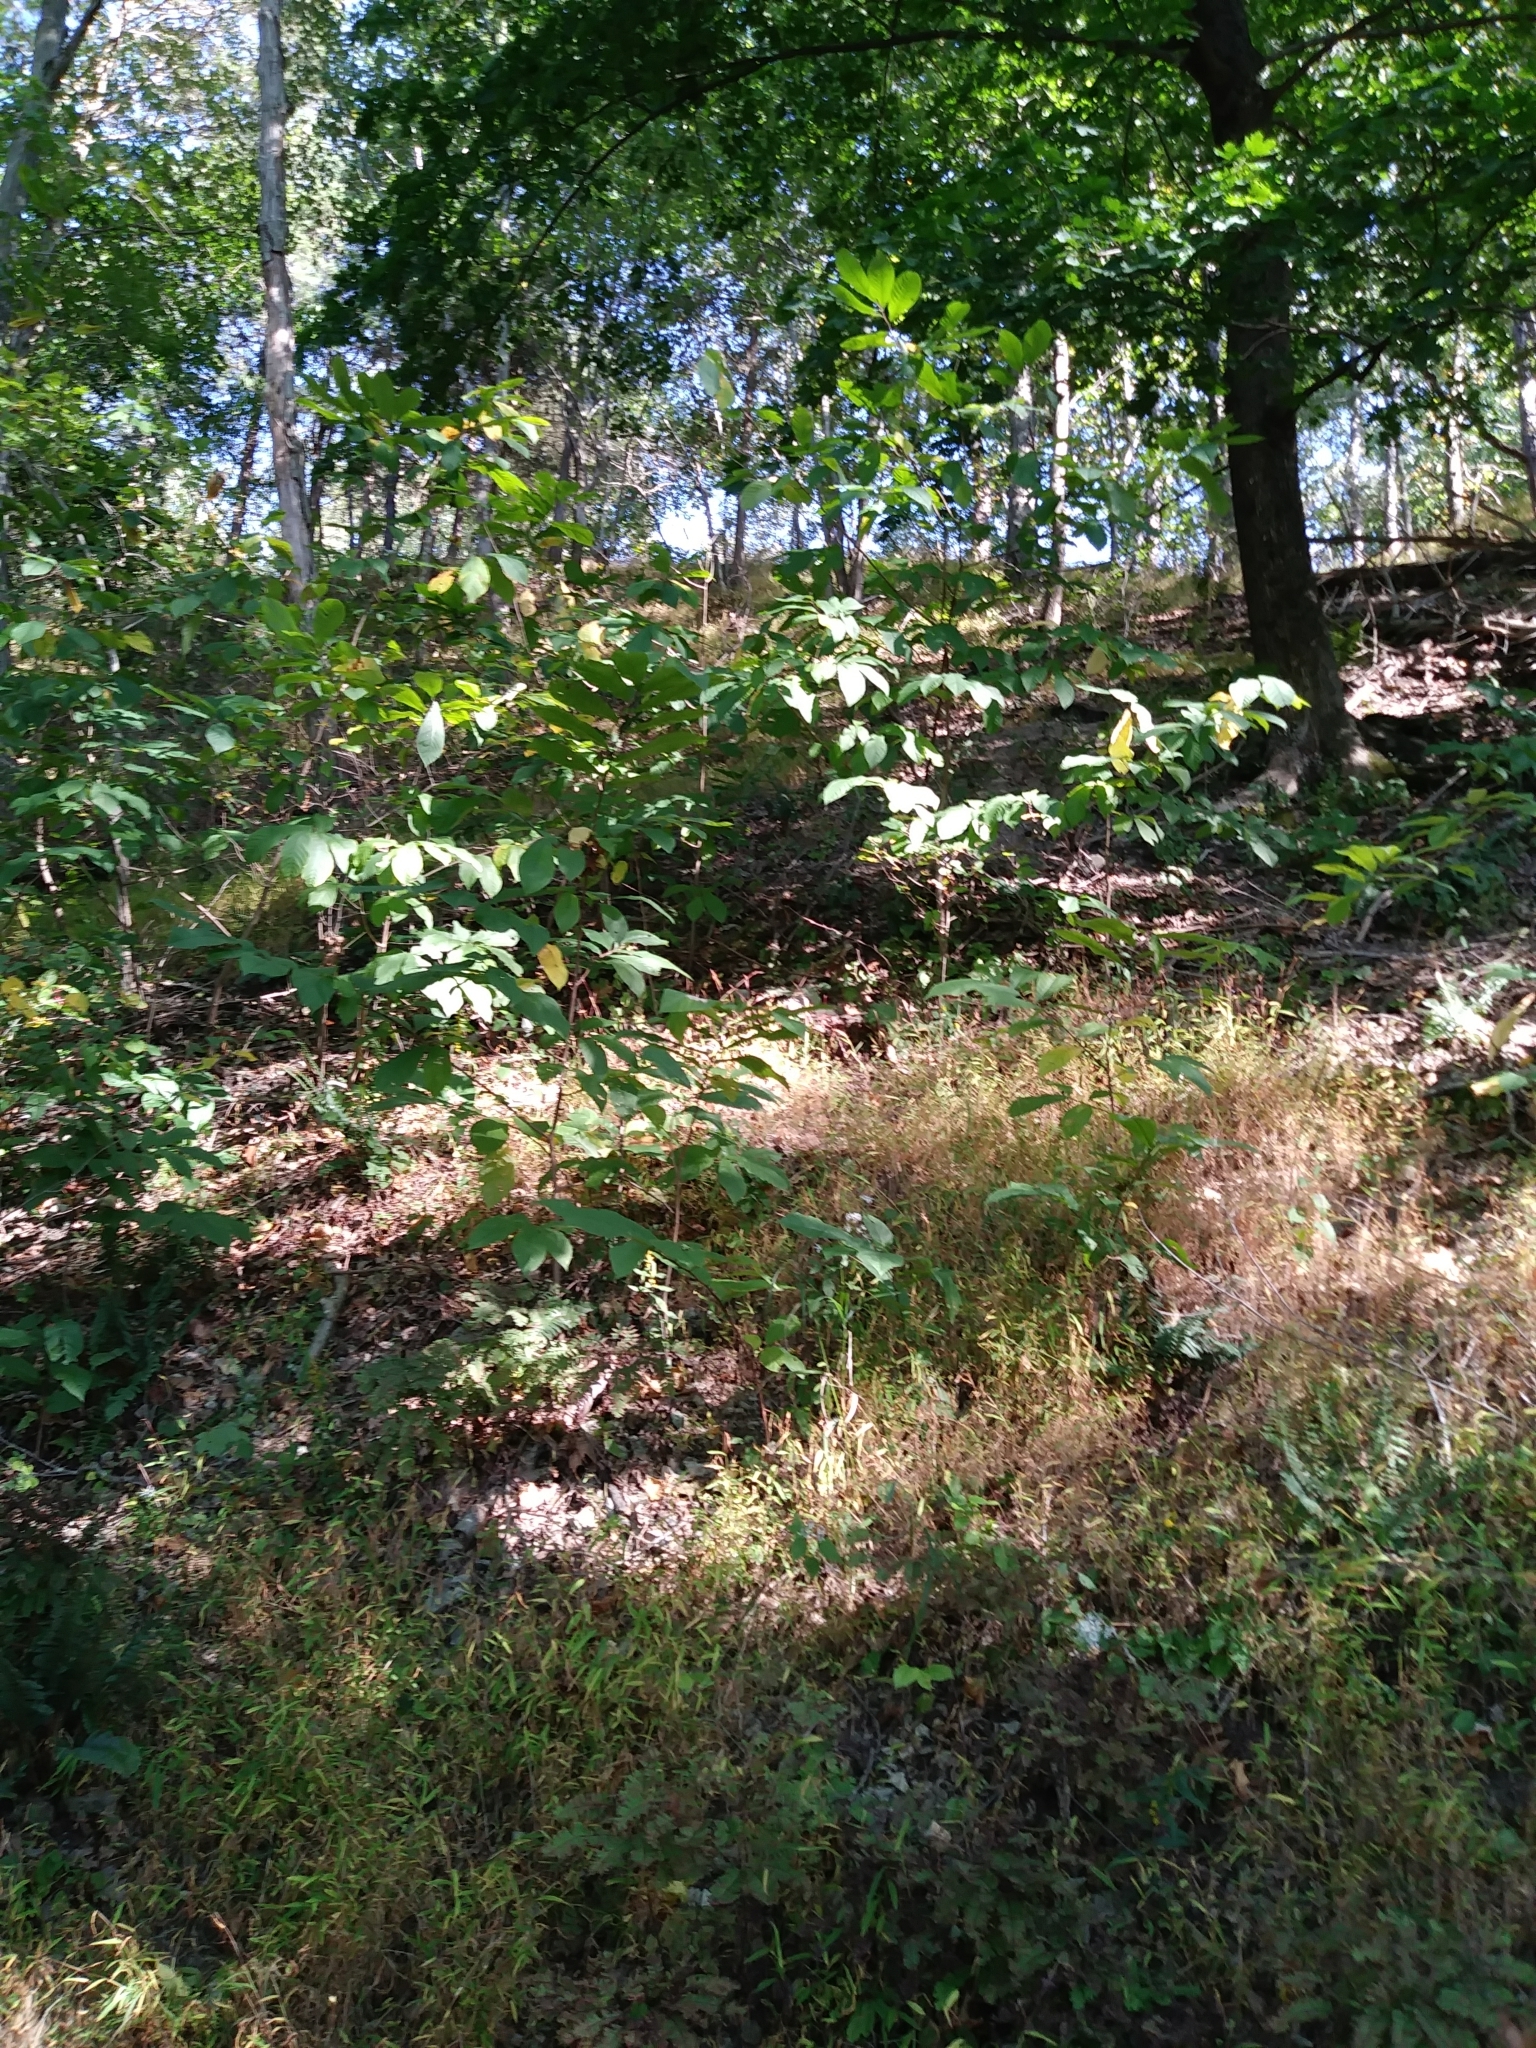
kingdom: Plantae
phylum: Tracheophyta
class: Magnoliopsida
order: Magnoliales
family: Annonaceae
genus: Asimina
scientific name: Asimina triloba
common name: Dog-banana
